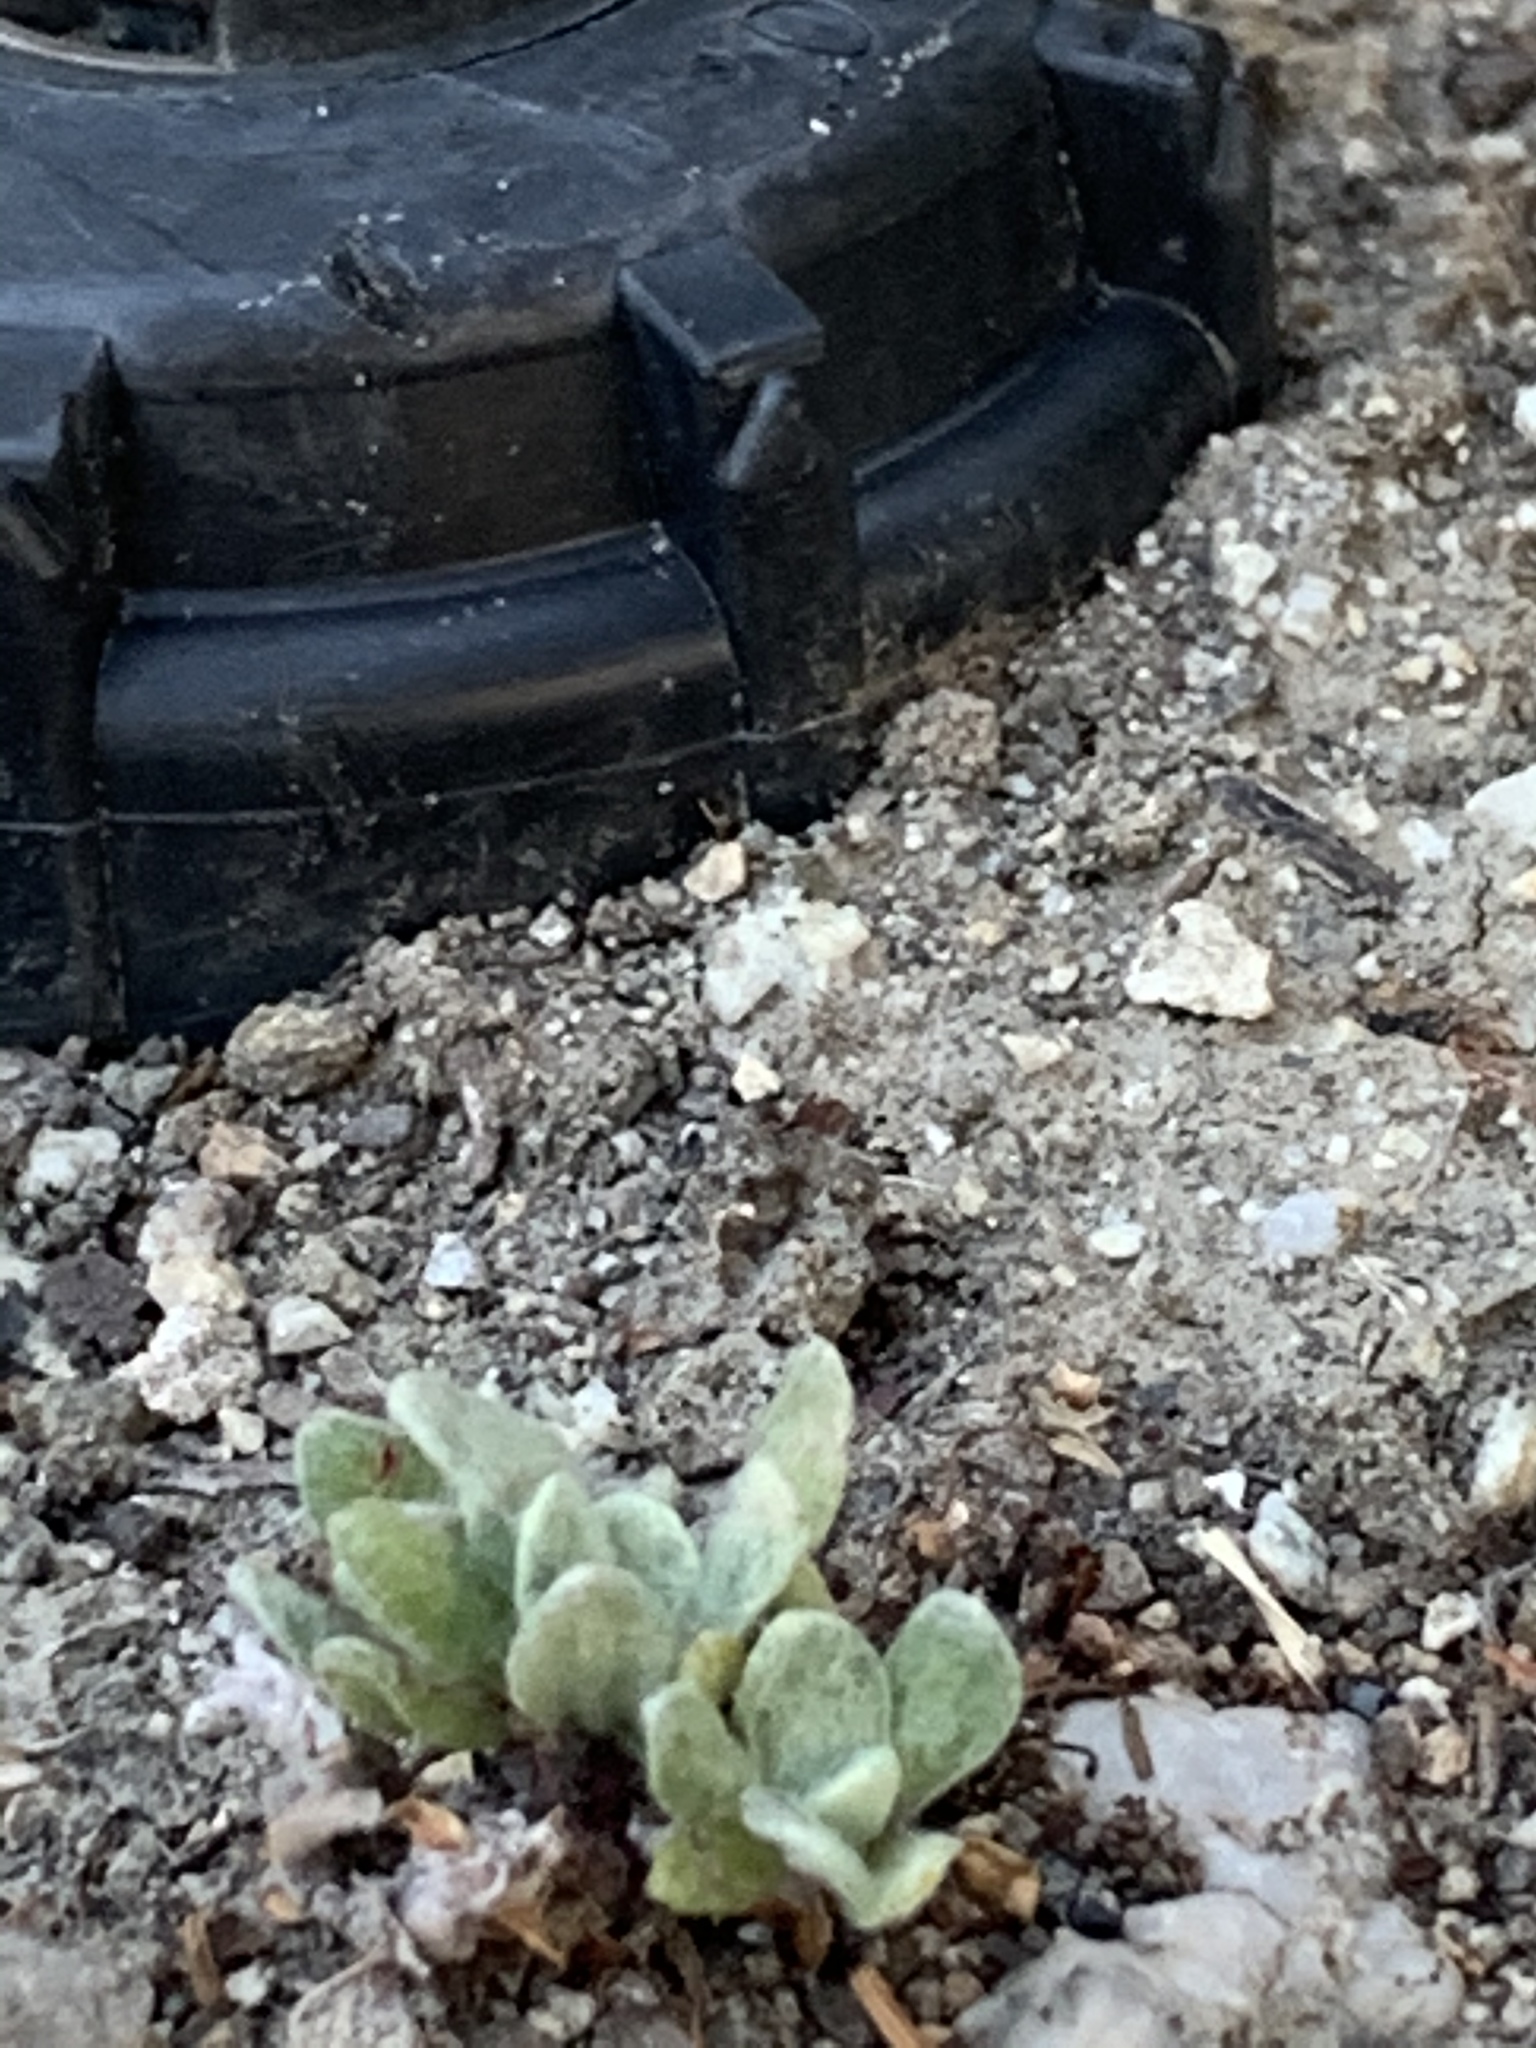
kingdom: Plantae
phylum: Tracheophyta
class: Magnoliopsida
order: Asterales
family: Asteraceae
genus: Helichrysum
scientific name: Helichrysum luteoalbum
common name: Daisy
